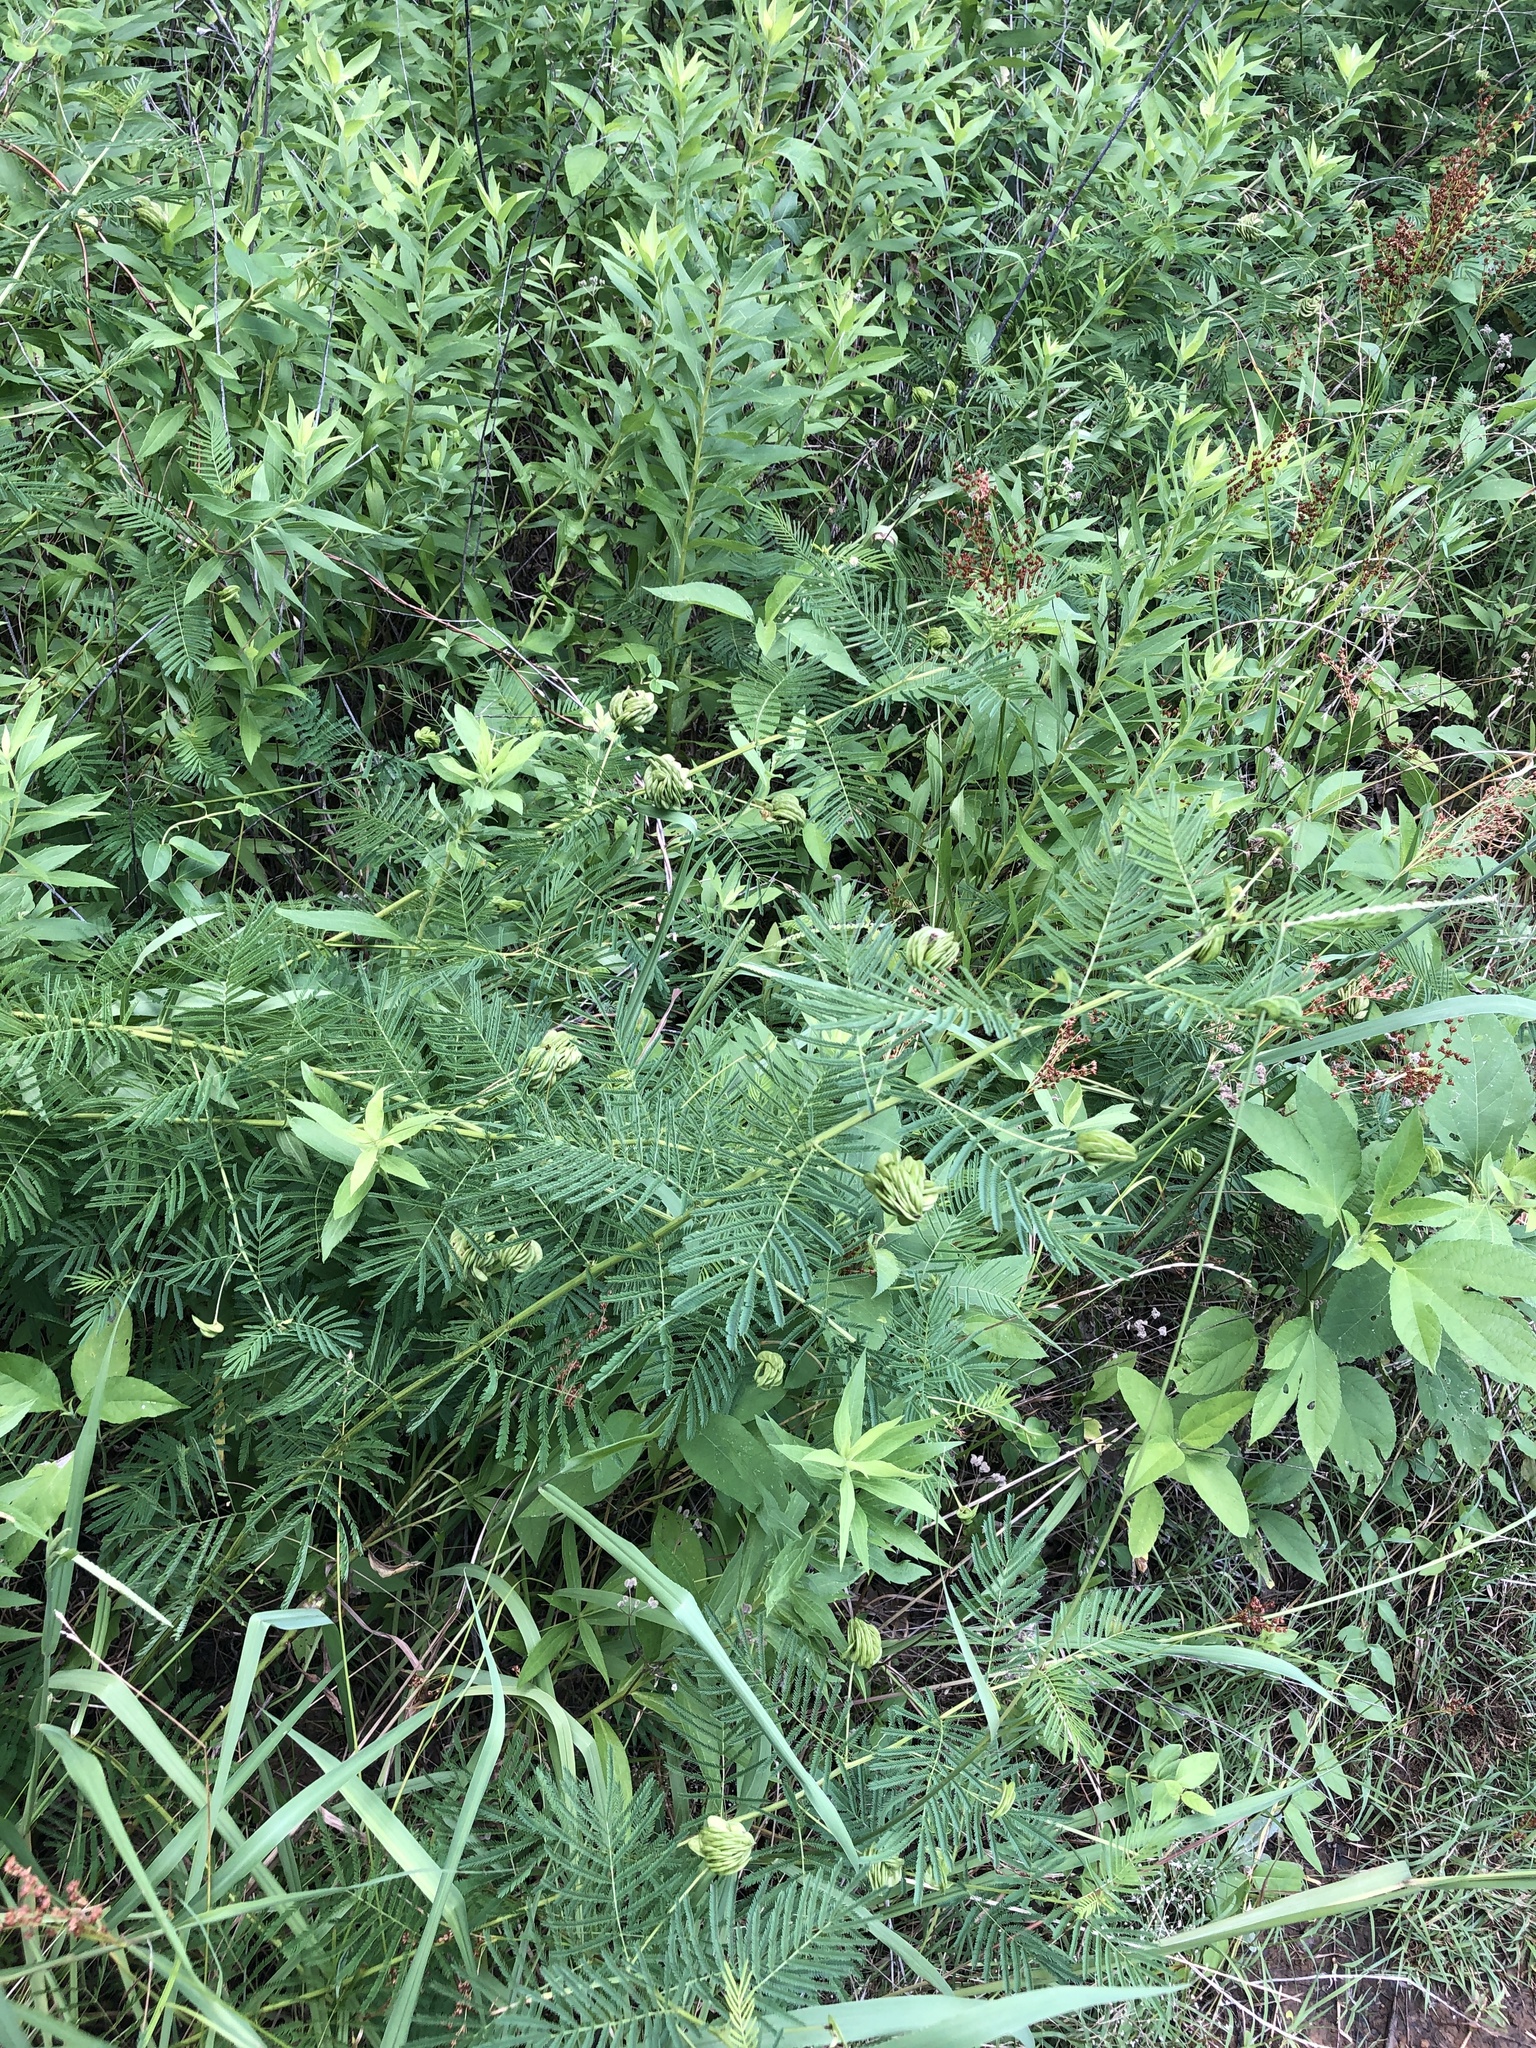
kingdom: Plantae
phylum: Tracheophyta
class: Magnoliopsida
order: Fabales
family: Fabaceae
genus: Desmanthus
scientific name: Desmanthus illinoensis
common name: Illinois bundle-flower
